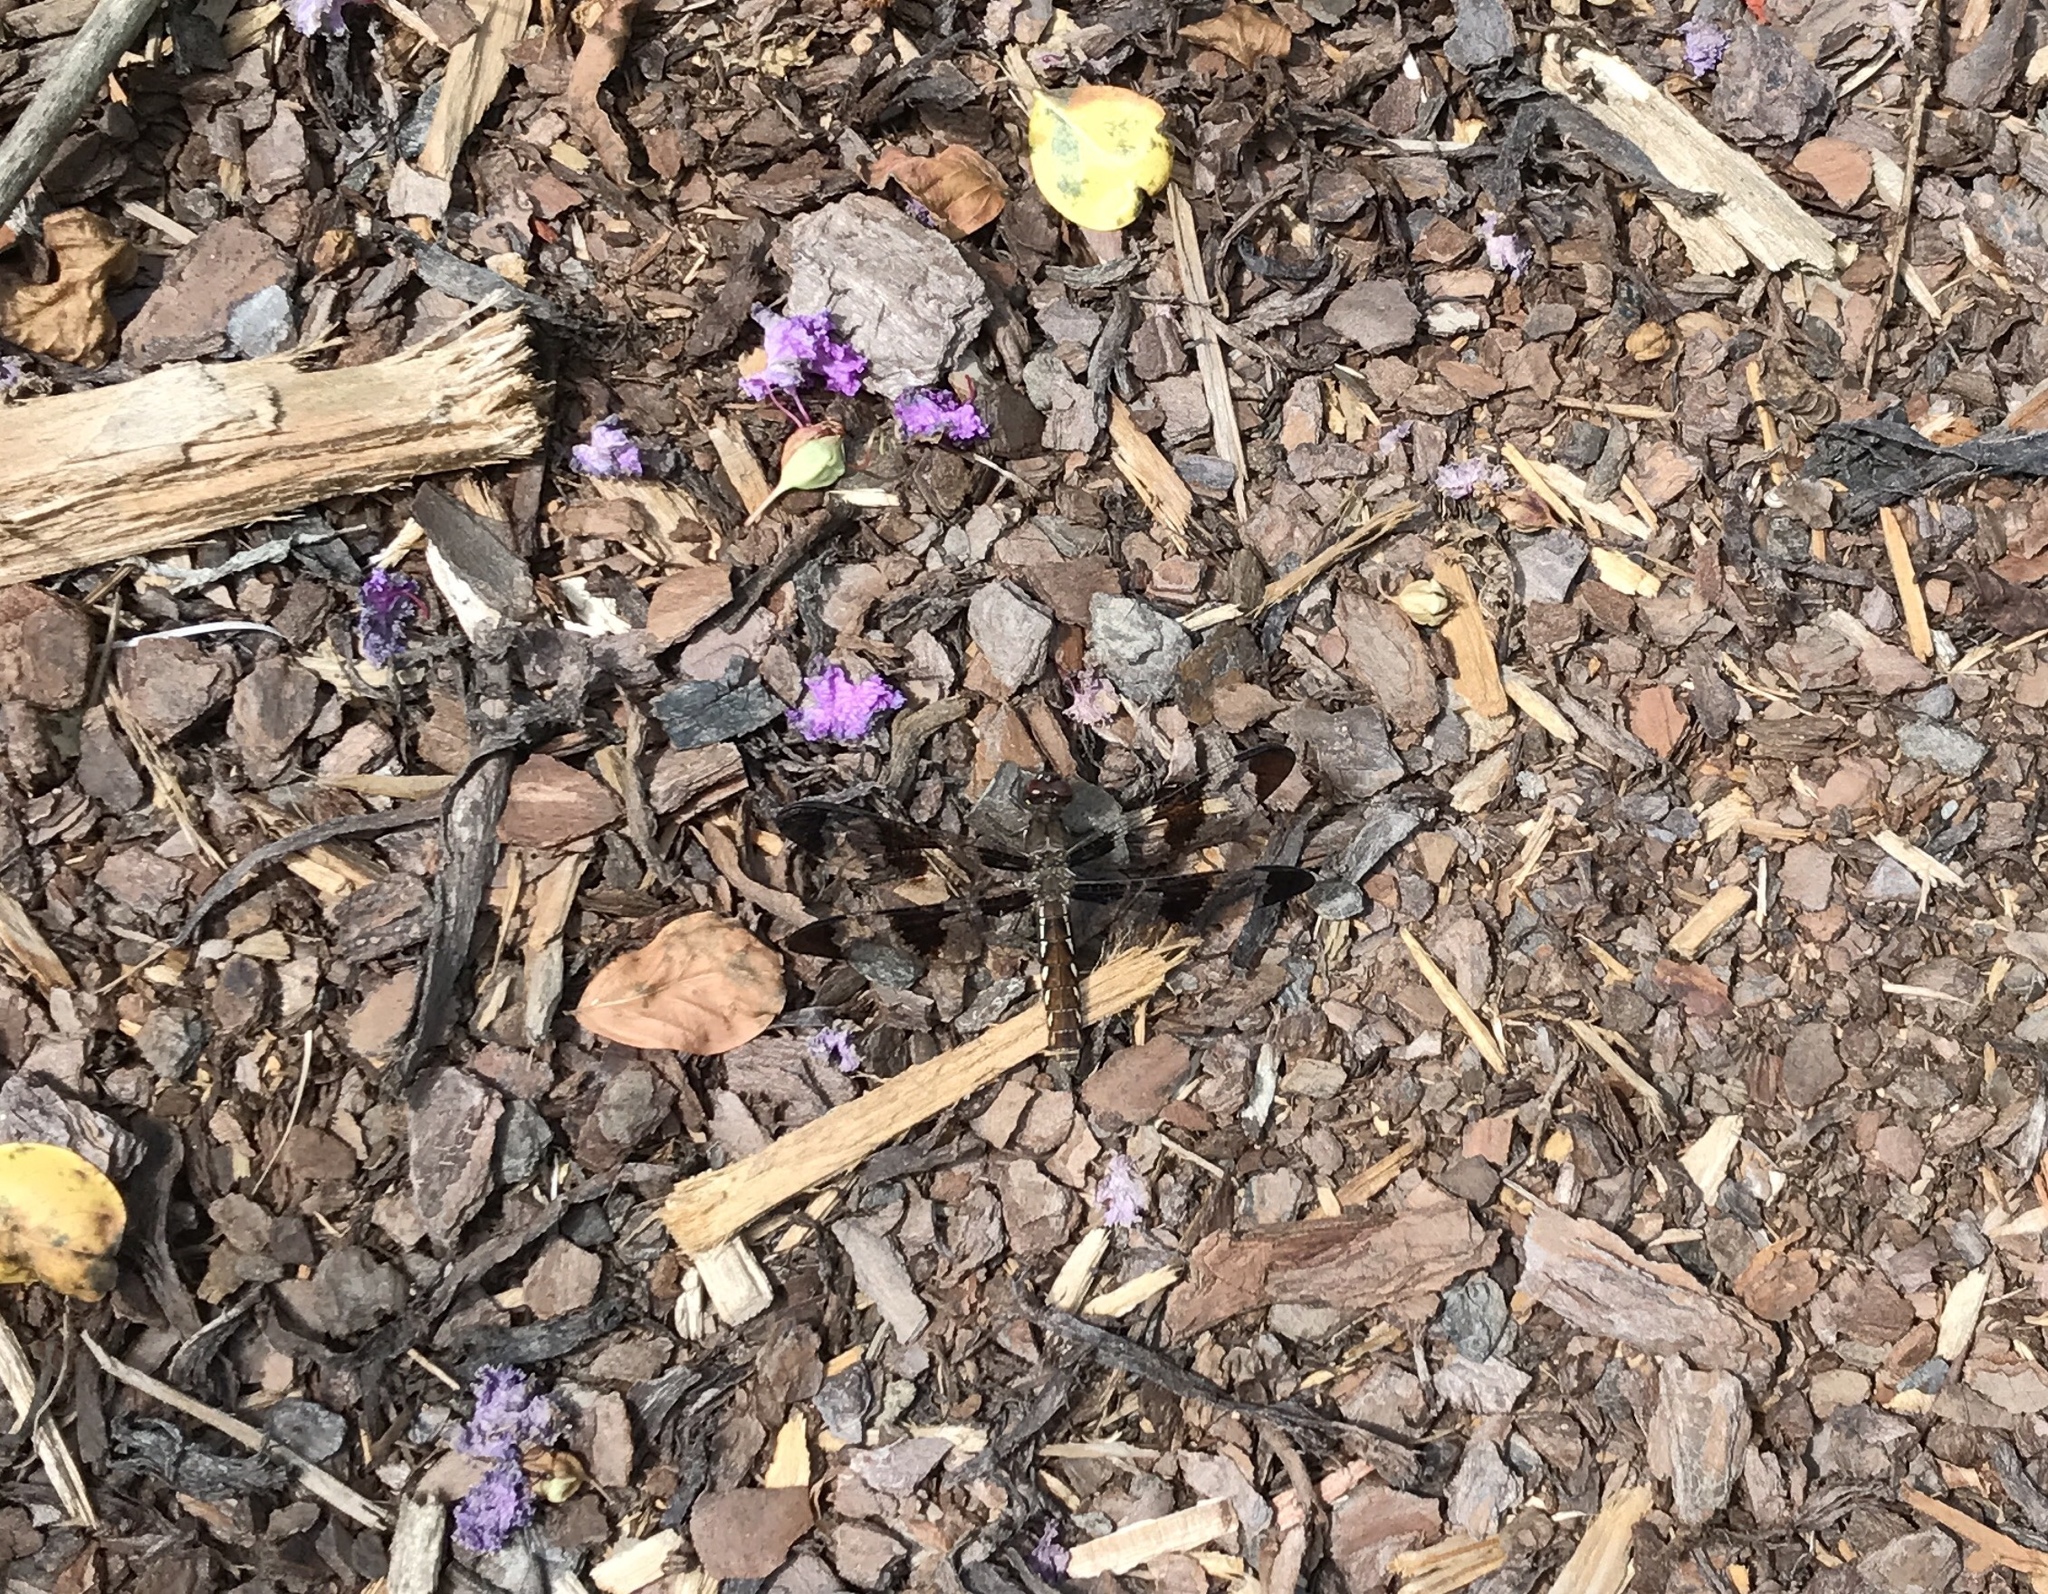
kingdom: Animalia
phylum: Arthropoda
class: Insecta
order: Odonata
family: Libellulidae
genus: Plathemis
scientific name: Plathemis lydia
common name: Common whitetail
